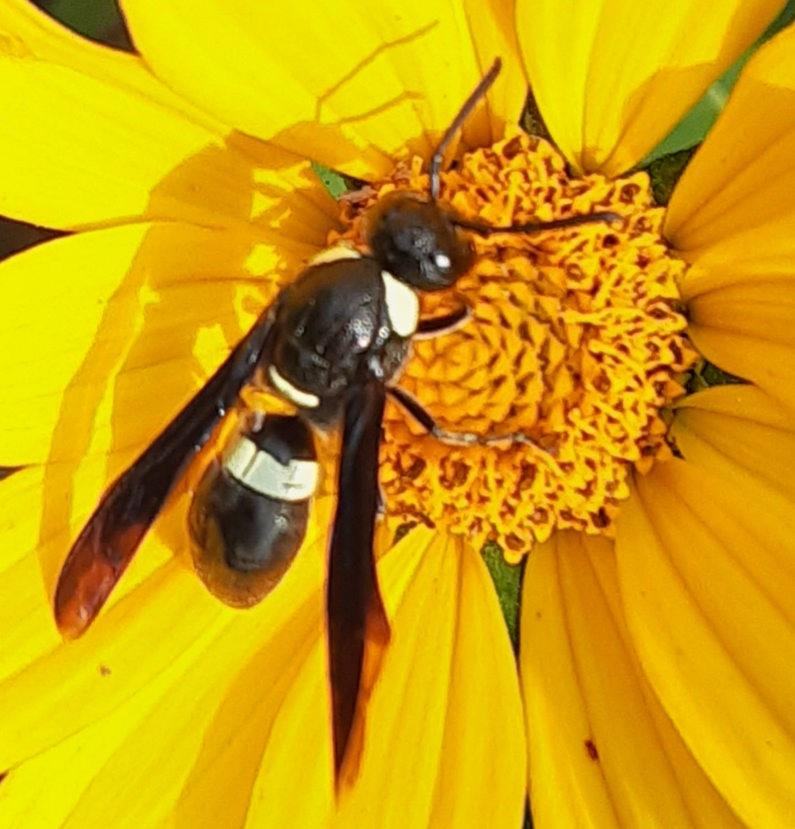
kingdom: Animalia
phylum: Arthropoda
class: Insecta
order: Hymenoptera
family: Eumenidae
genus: Monobia
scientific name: Monobia quadridens
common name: Four-toothed mason wasp
